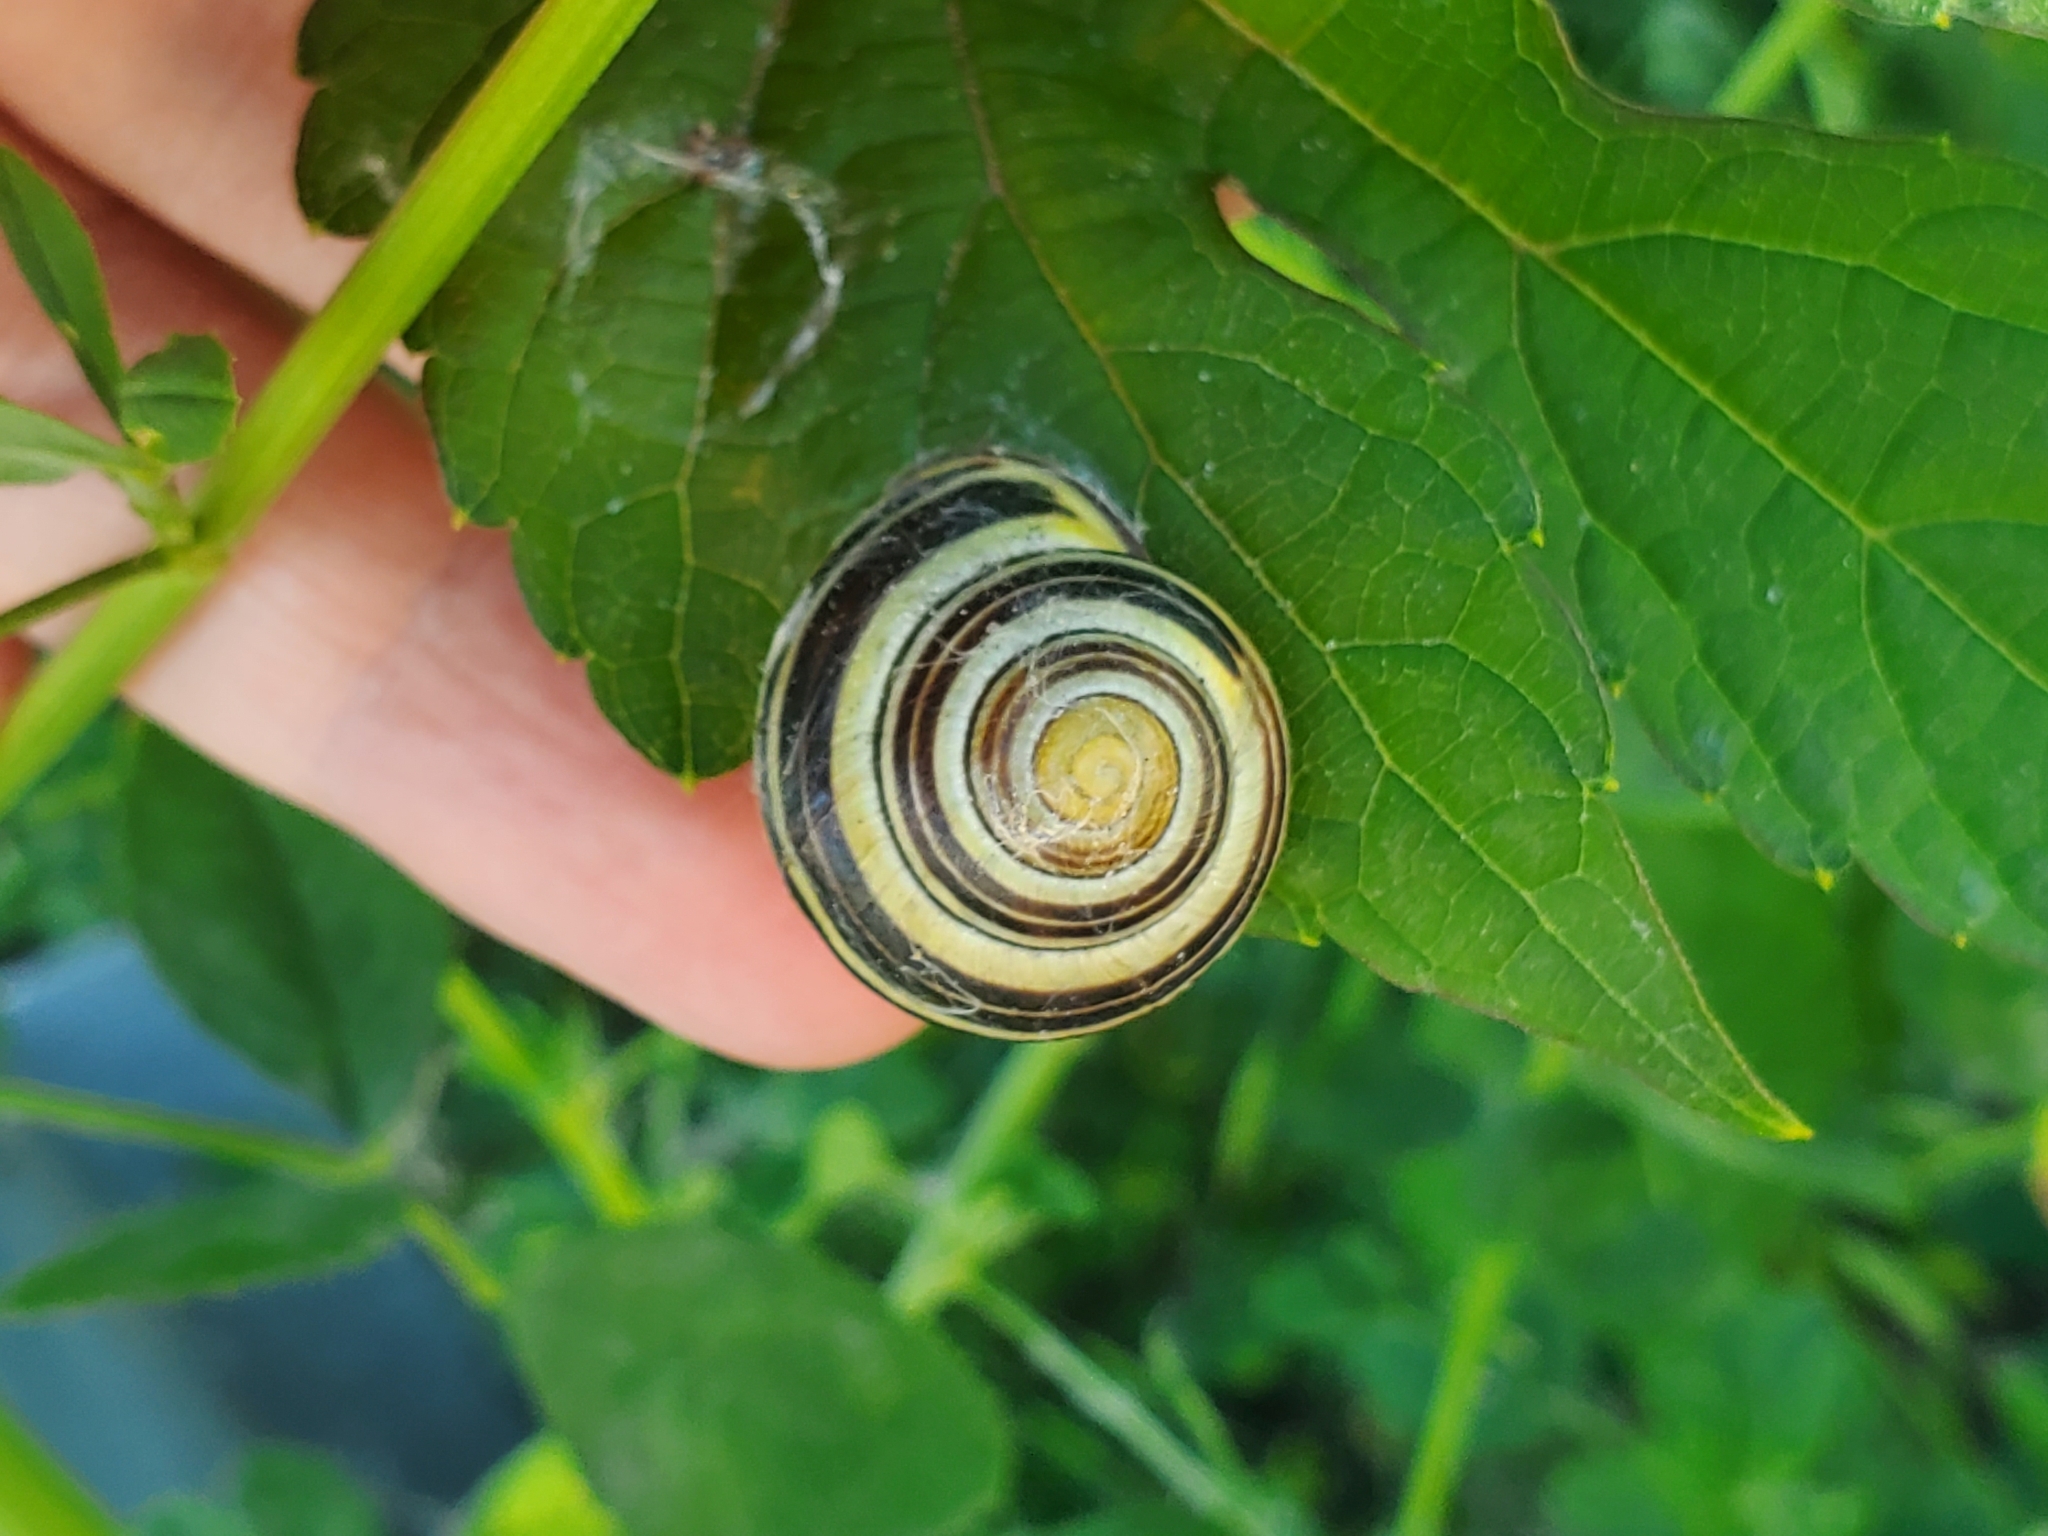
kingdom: Animalia
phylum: Mollusca
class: Gastropoda
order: Stylommatophora
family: Helicidae
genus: Cepaea
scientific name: Cepaea nemoralis
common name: Grovesnail
